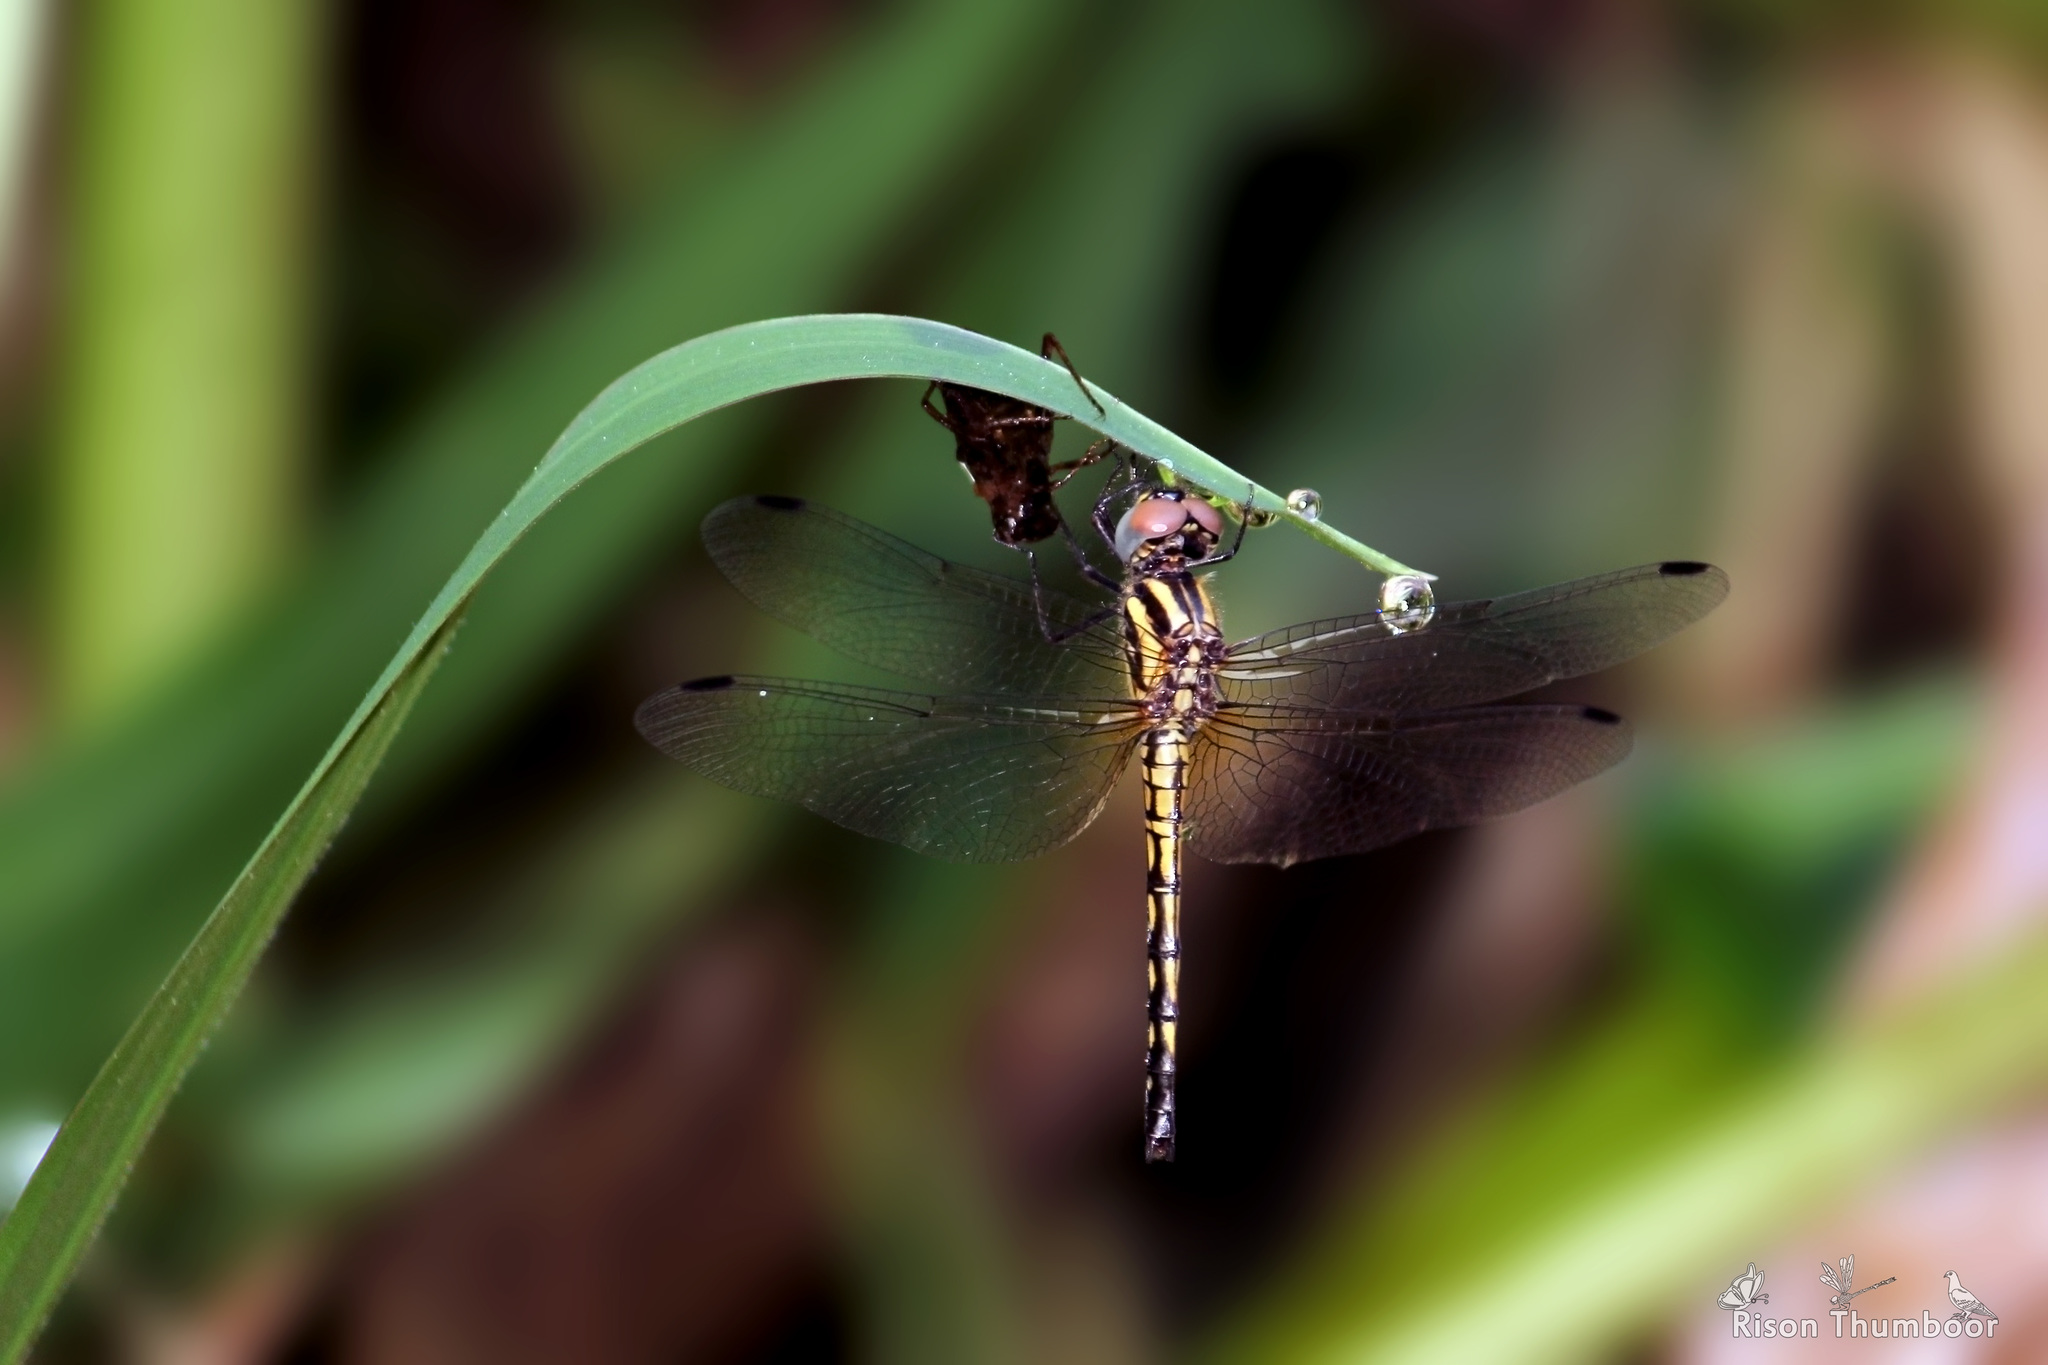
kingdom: Animalia
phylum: Arthropoda
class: Insecta
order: Odonata
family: Libellulidae
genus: Trithemis
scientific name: Trithemis festiva
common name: Indigo dropwing
